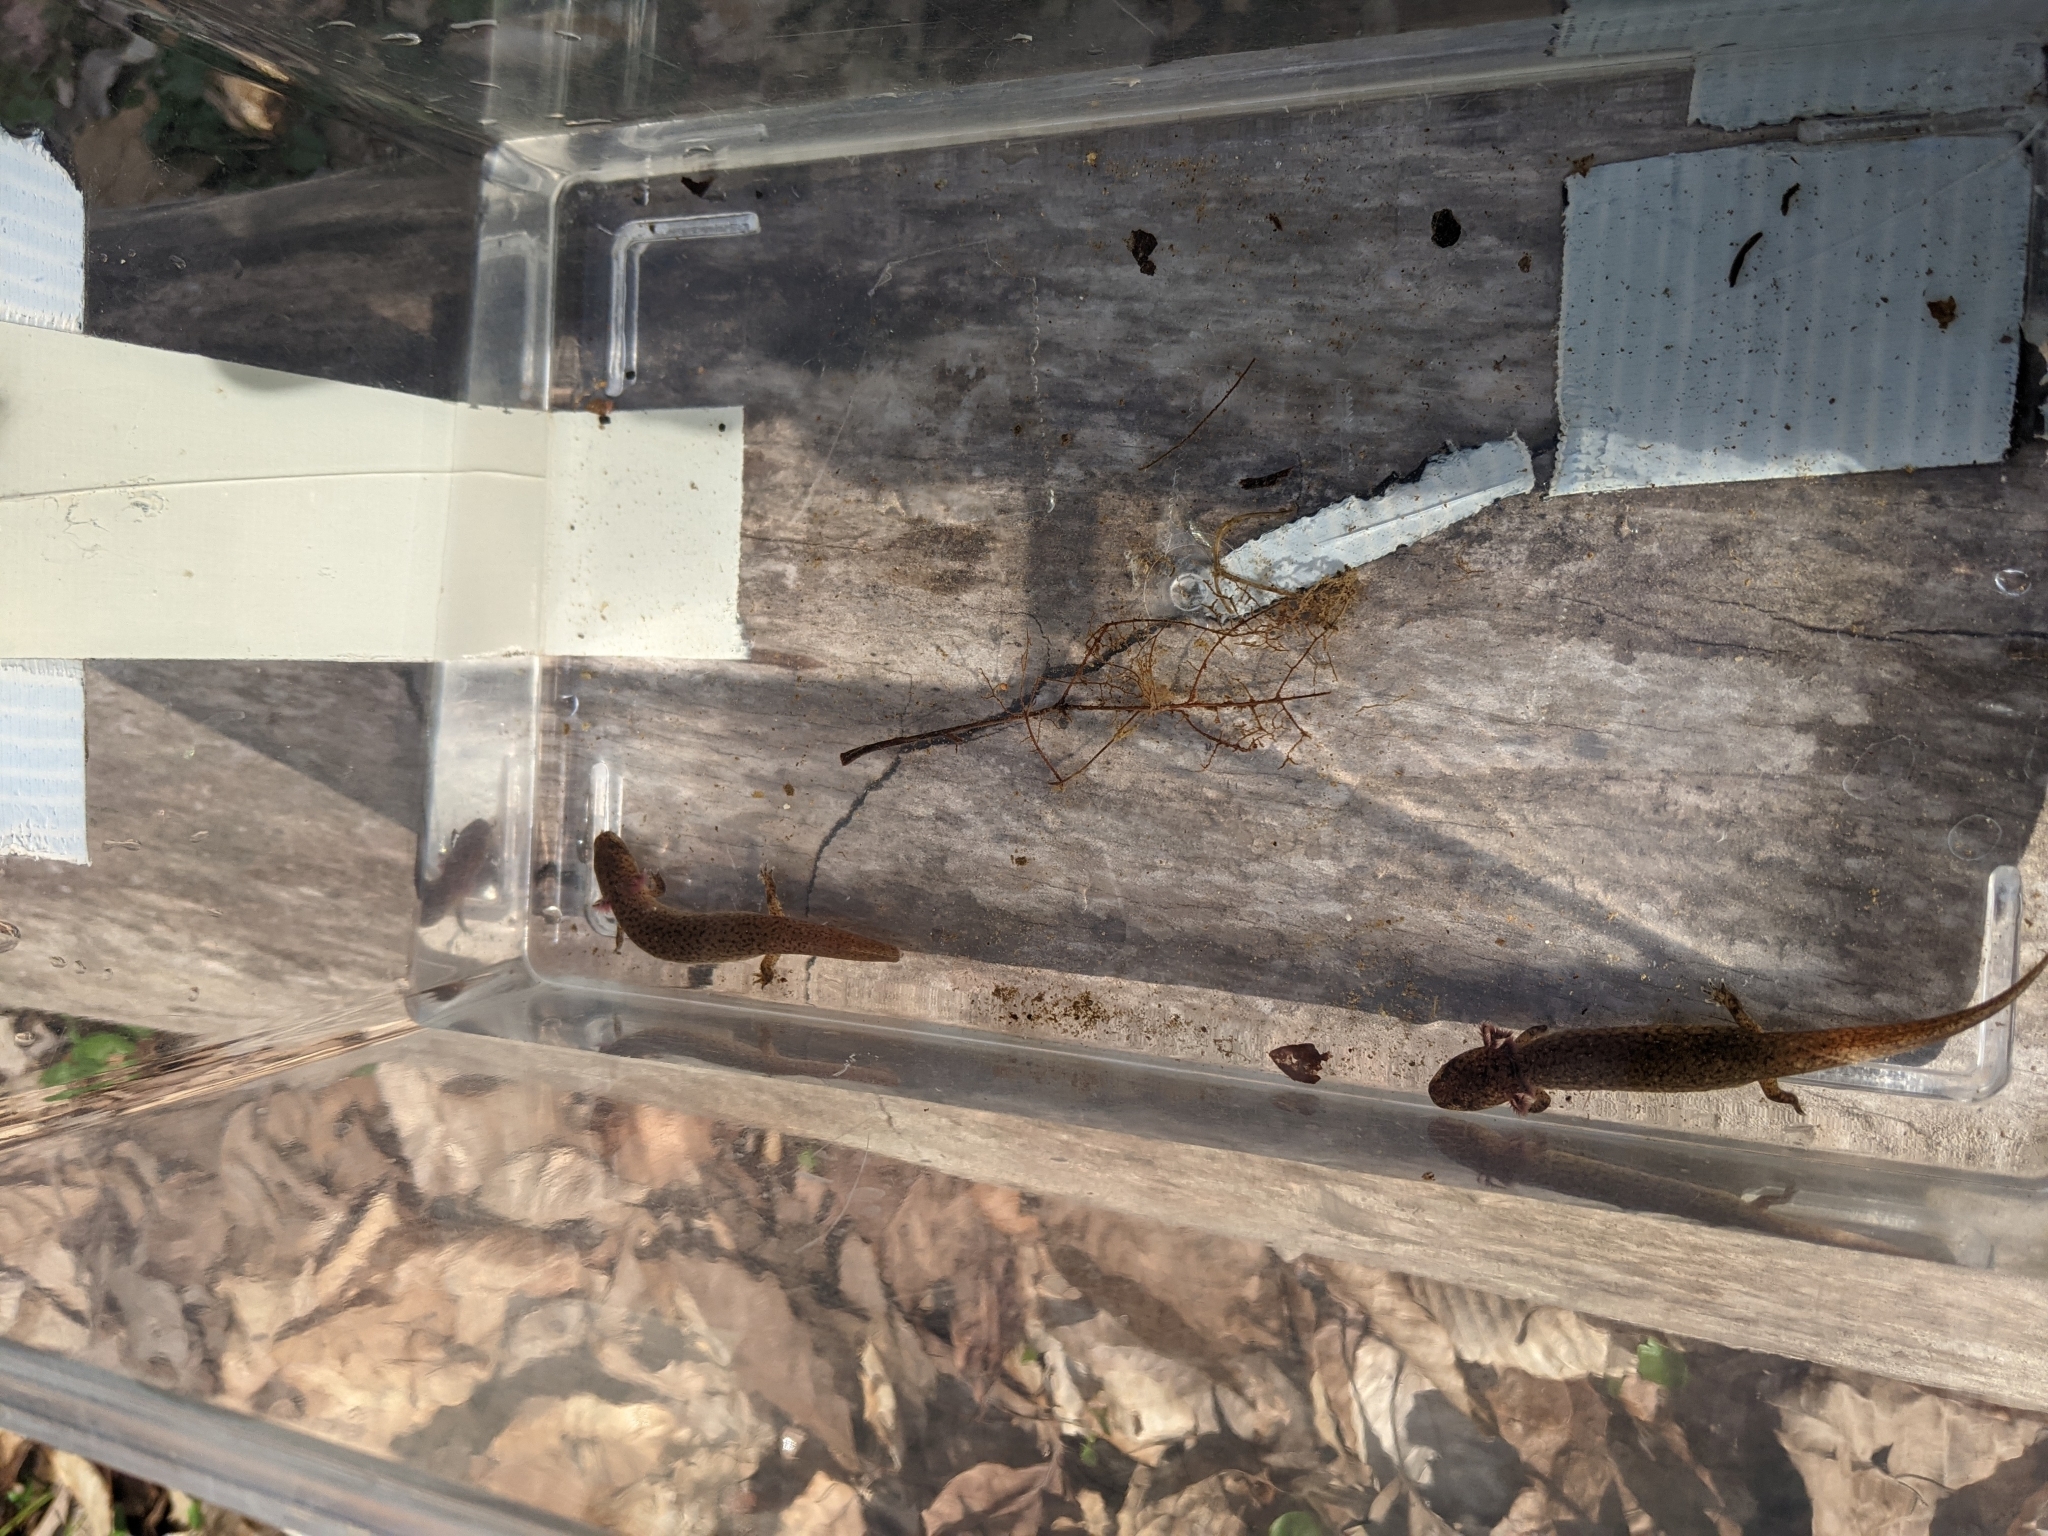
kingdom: Animalia
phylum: Chordata
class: Amphibia
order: Caudata
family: Plethodontidae
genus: Pseudotriton
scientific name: Pseudotriton ruber
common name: Red salamander
